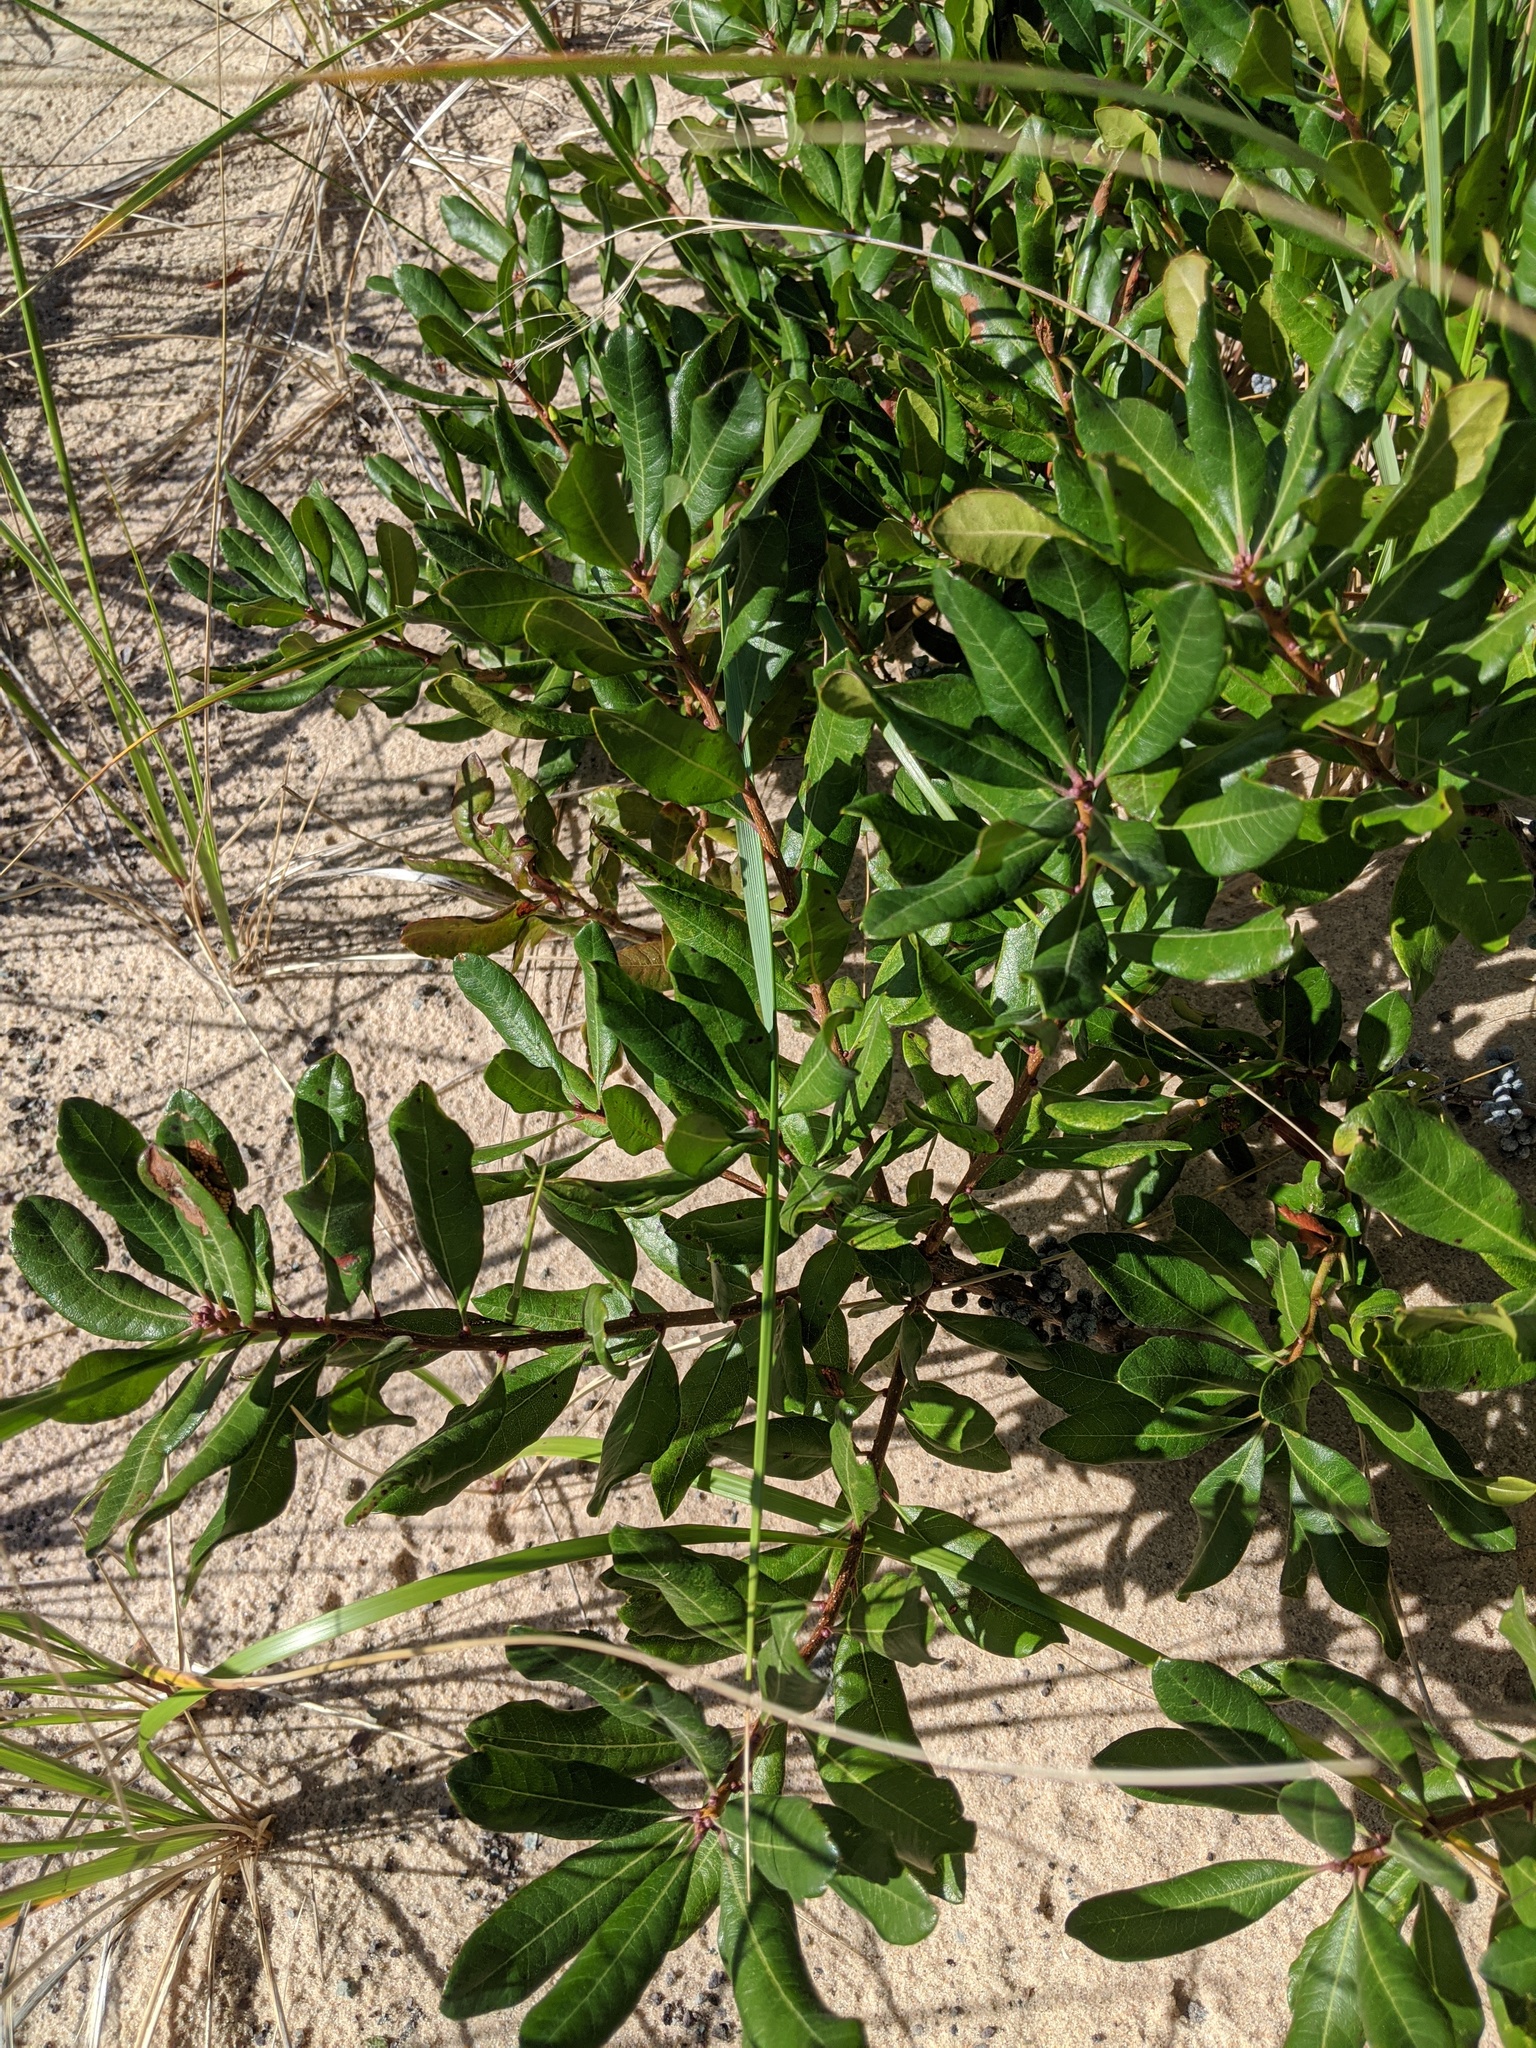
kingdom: Plantae
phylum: Tracheophyta
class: Magnoliopsida
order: Fagales
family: Myricaceae
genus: Morella
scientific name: Morella pensylvanica
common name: Northern bayberry
